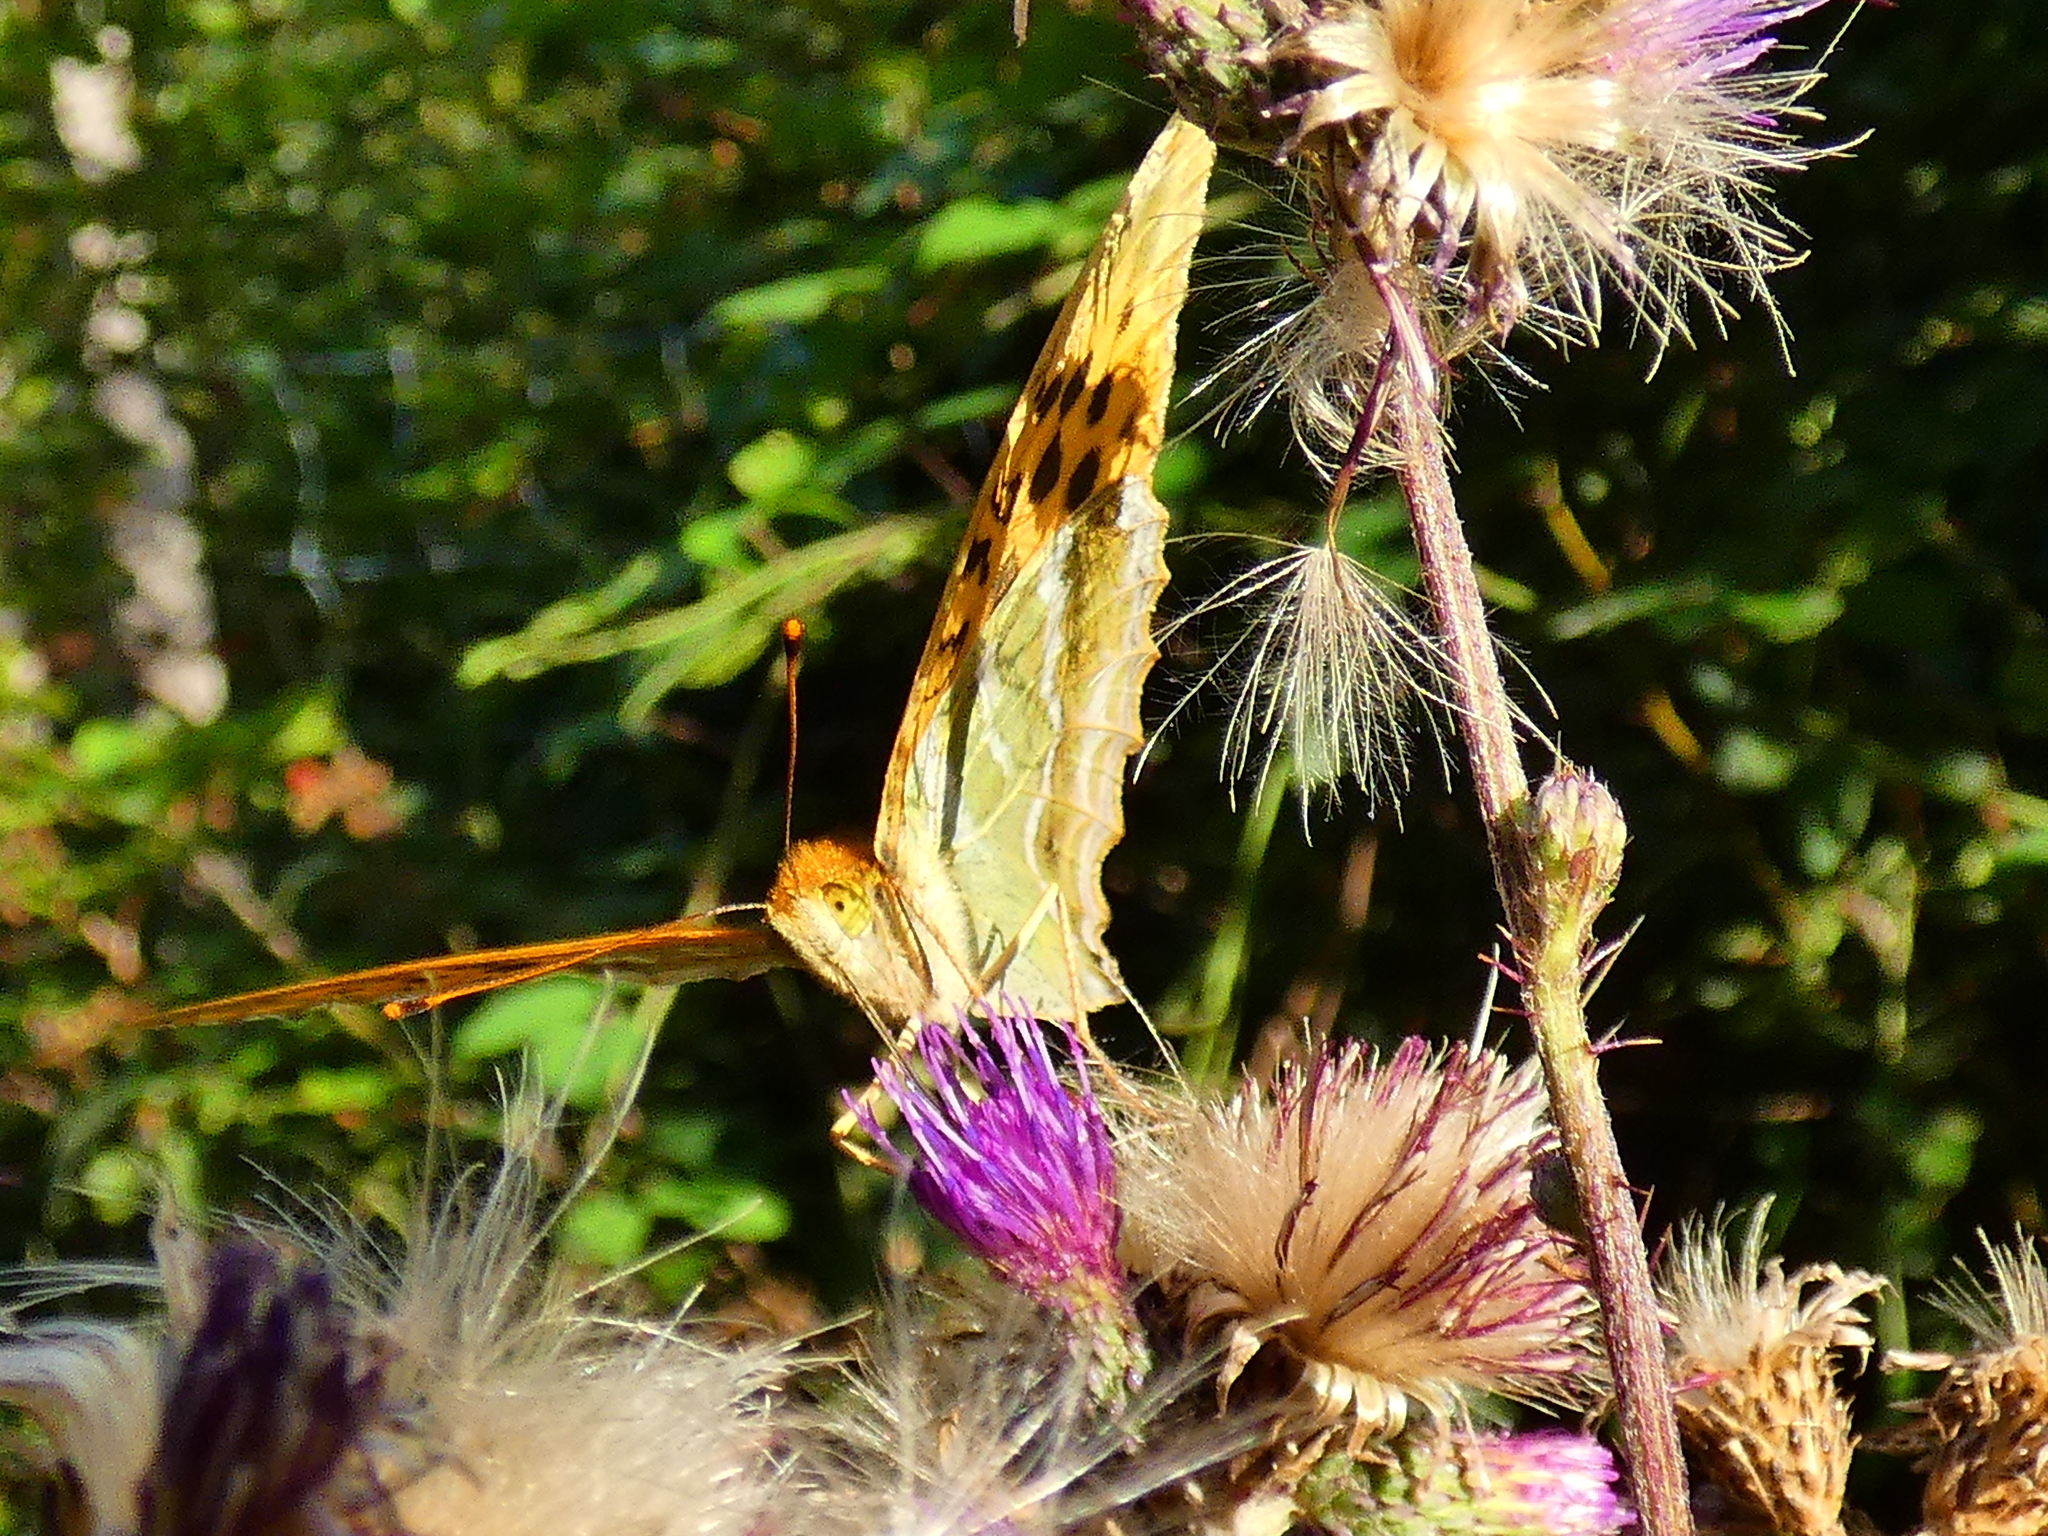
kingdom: Animalia
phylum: Arthropoda
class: Insecta
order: Lepidoptera
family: Nymphalidae
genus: Argynnis
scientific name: Argynnis paphia
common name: Silver-washed fritillary
